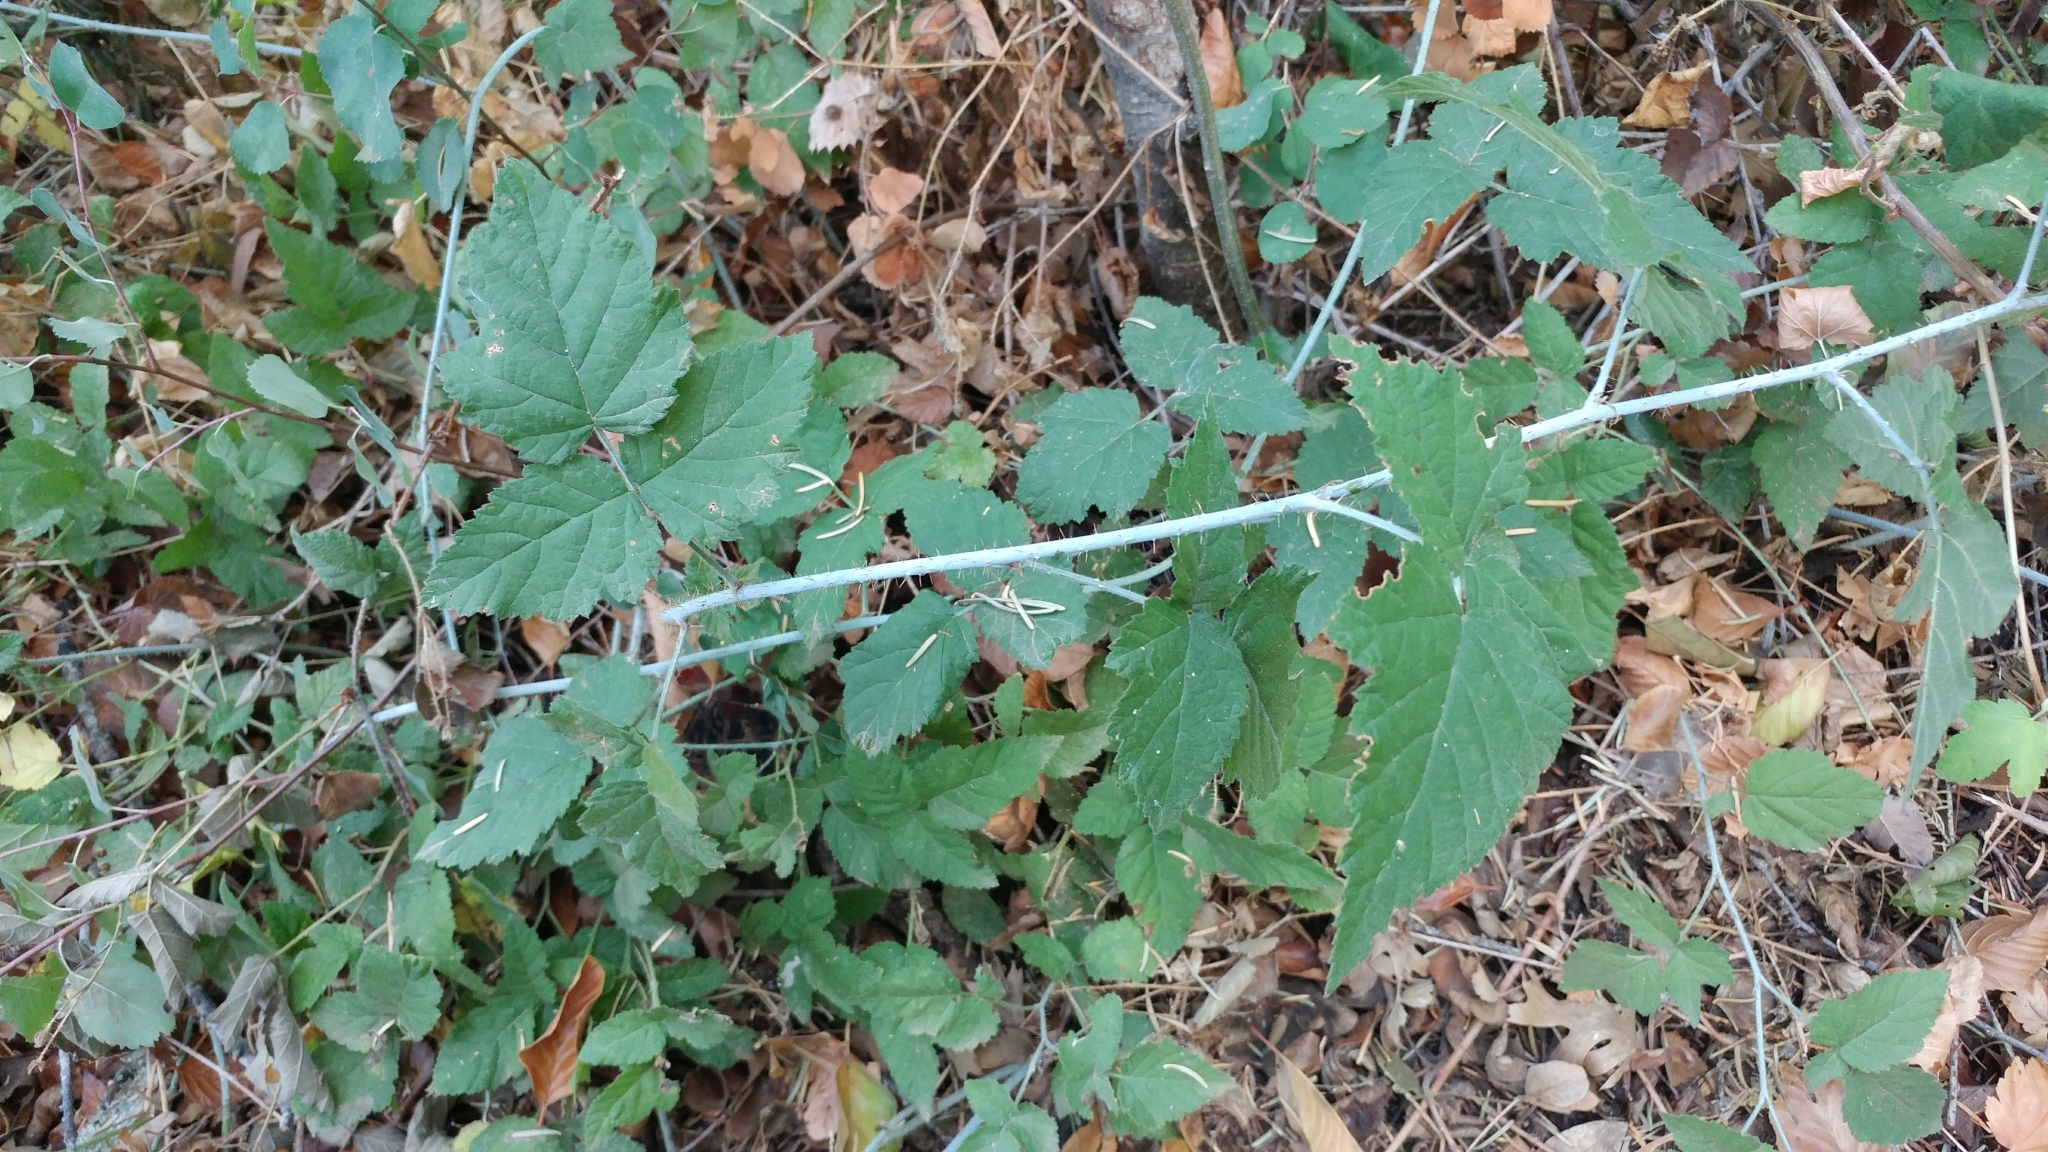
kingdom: Plantae
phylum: Tracheophyta
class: Magnoliopsida
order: Rosales
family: Rosaceae
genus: Rubus
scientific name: Rubus ursinus
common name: Pacific blackberry
